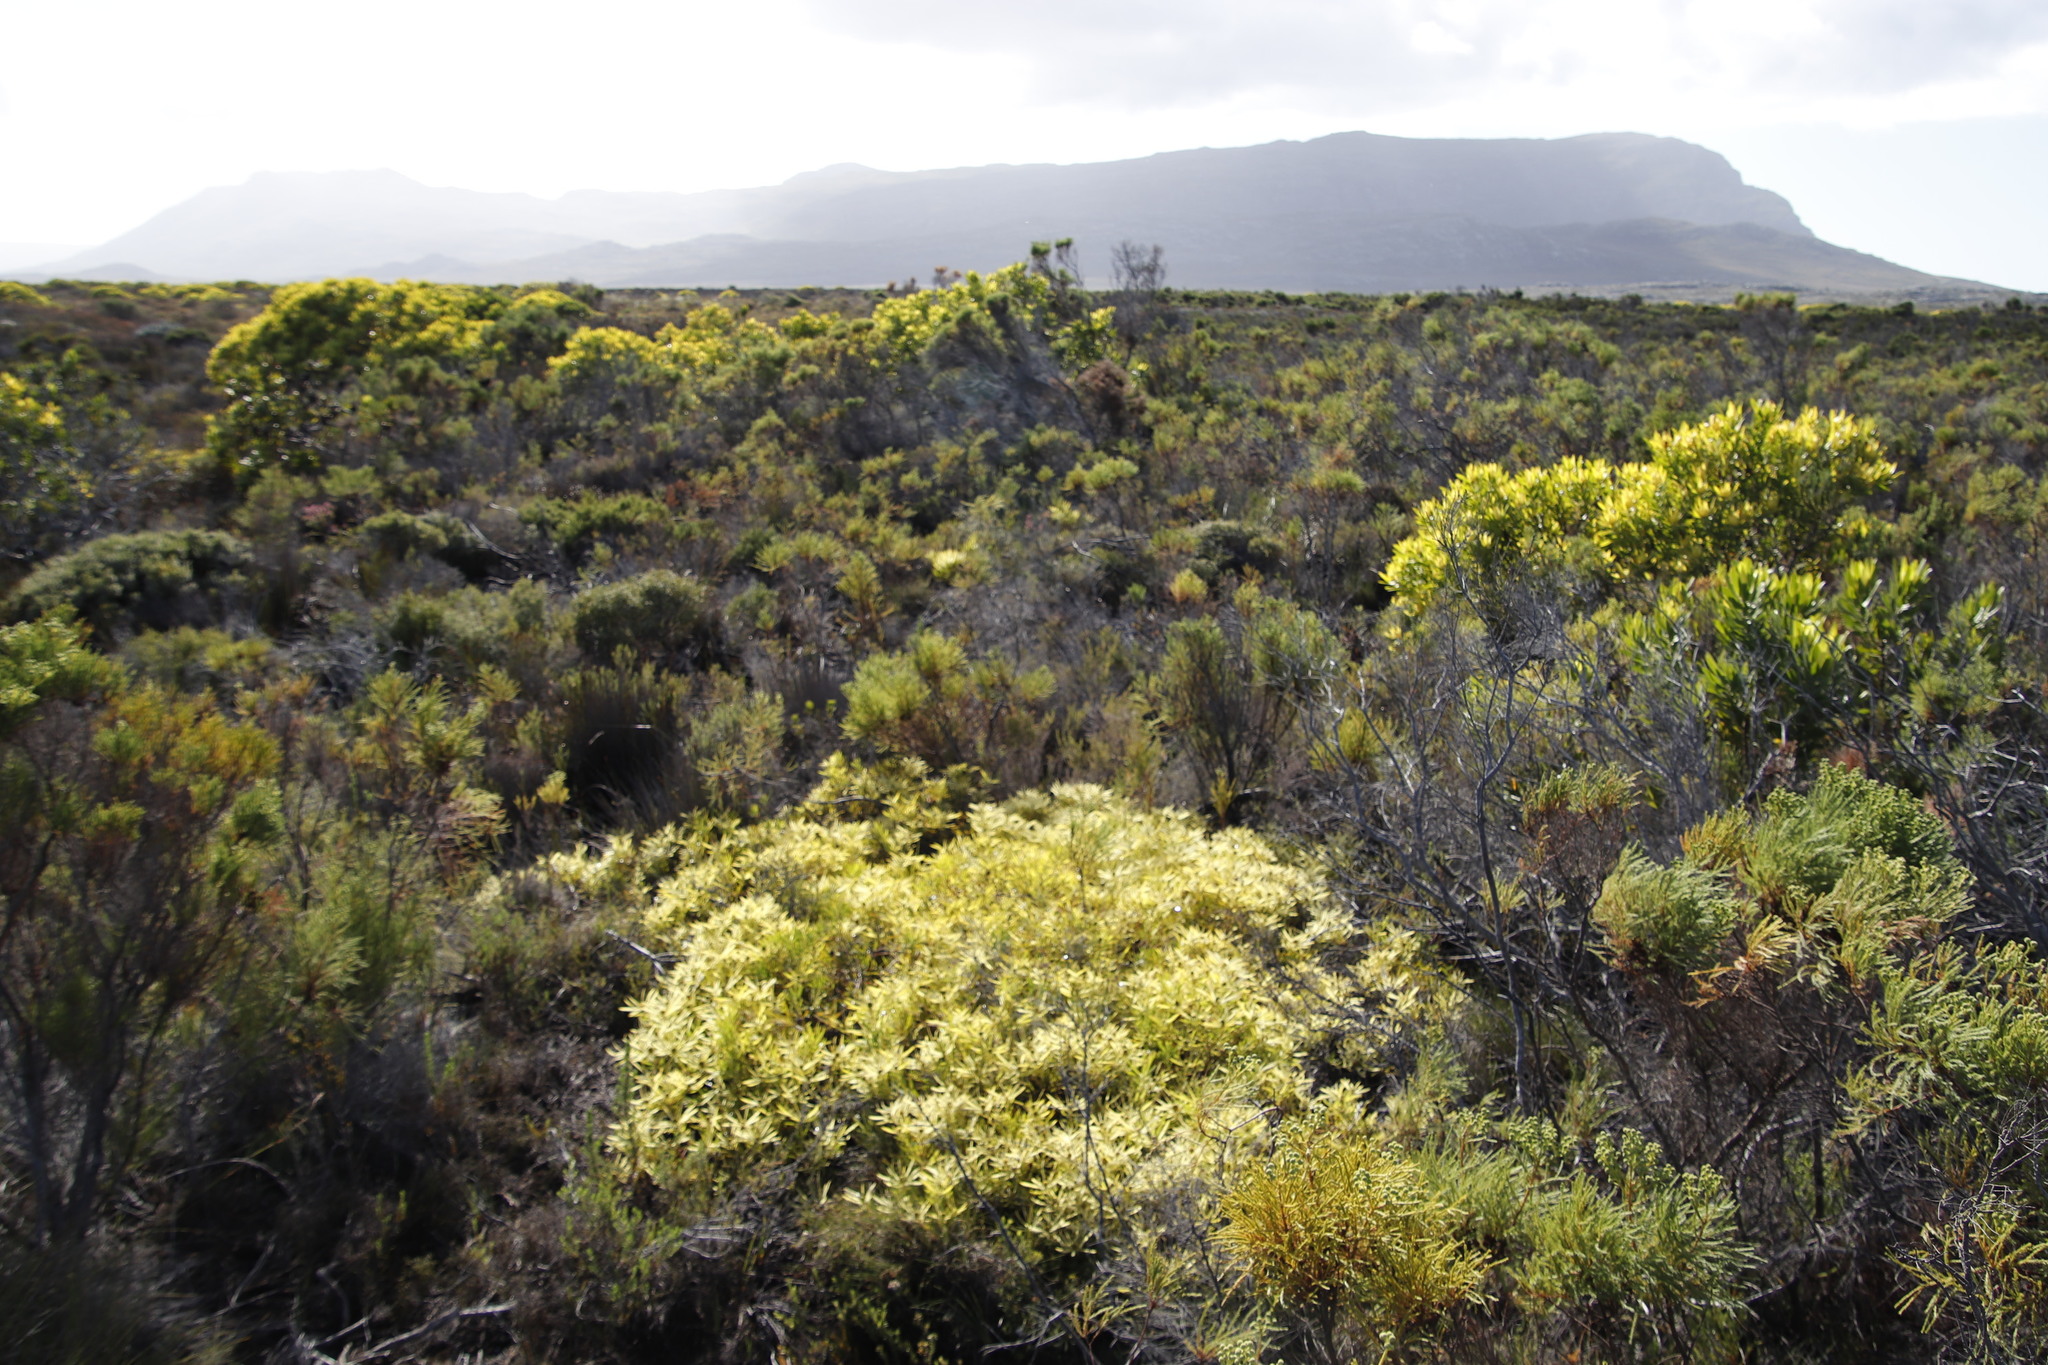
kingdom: Plantae
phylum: Tracheophyta
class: Magnoliopsida
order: Proteales
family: Proteaceae
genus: Leucadendron
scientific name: Leucadendron salignum
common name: Common sunshine conebush
